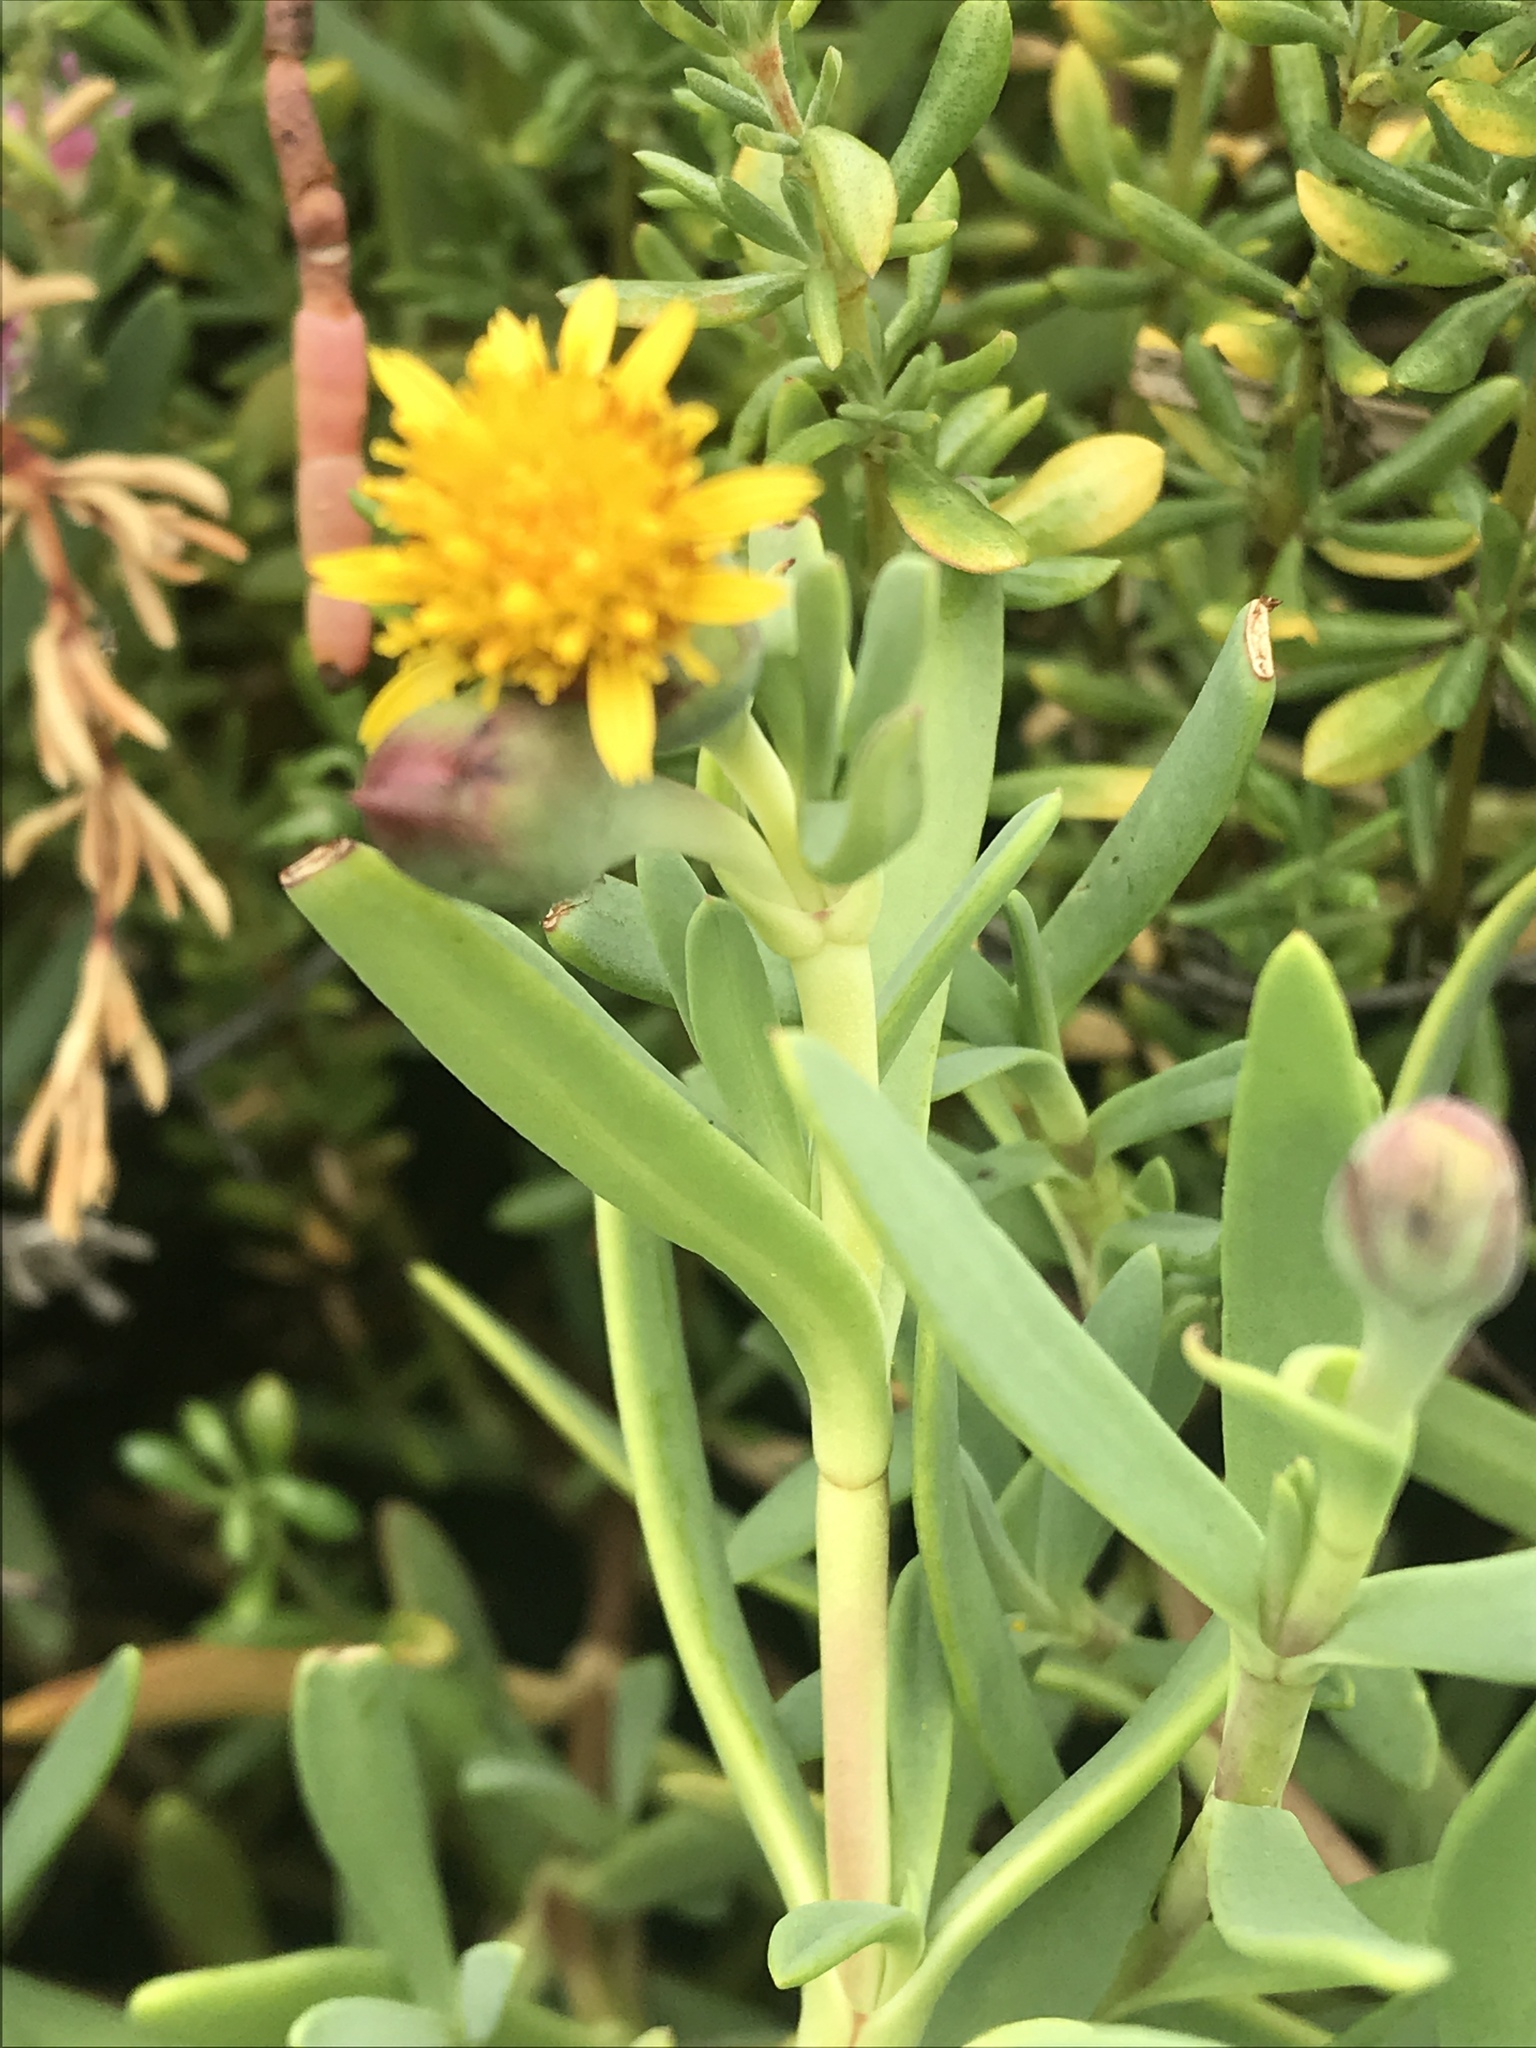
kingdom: Plantae
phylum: Tracheophyta
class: Magnoliopsida
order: Asterales
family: Asteraceae
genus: Jaumea
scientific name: Jaumea carnosa
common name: Fleshy jaumea
